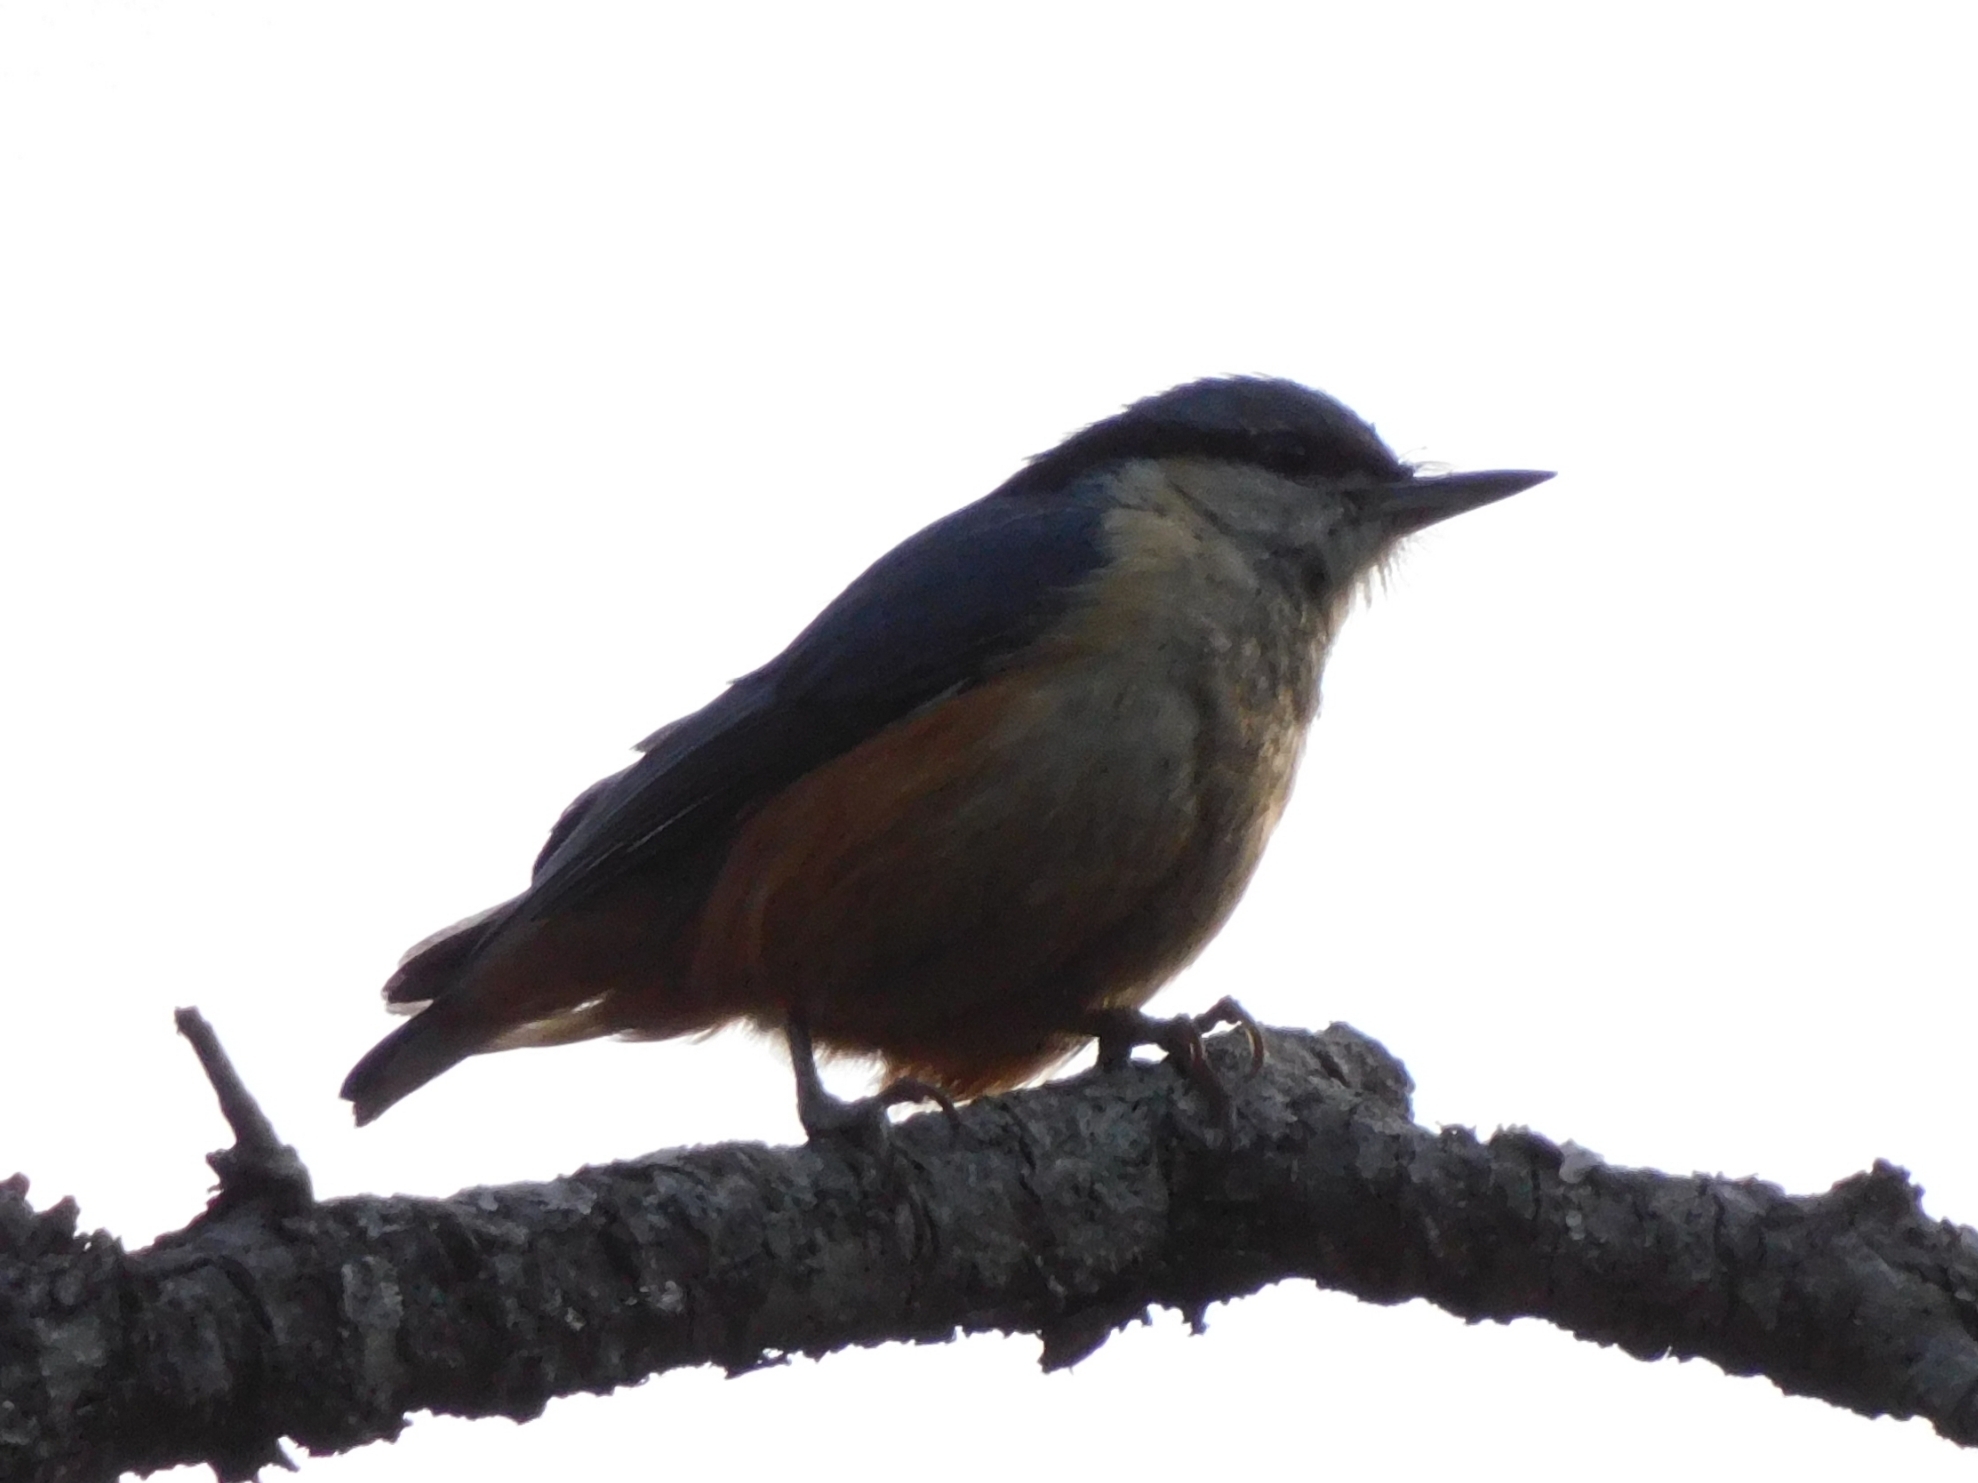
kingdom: Animalia
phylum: Chordata
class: Aves
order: Passeriformes
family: Sittidae
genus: Sitta
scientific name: Sitta himalayensis
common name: White-tailed nuthatch
